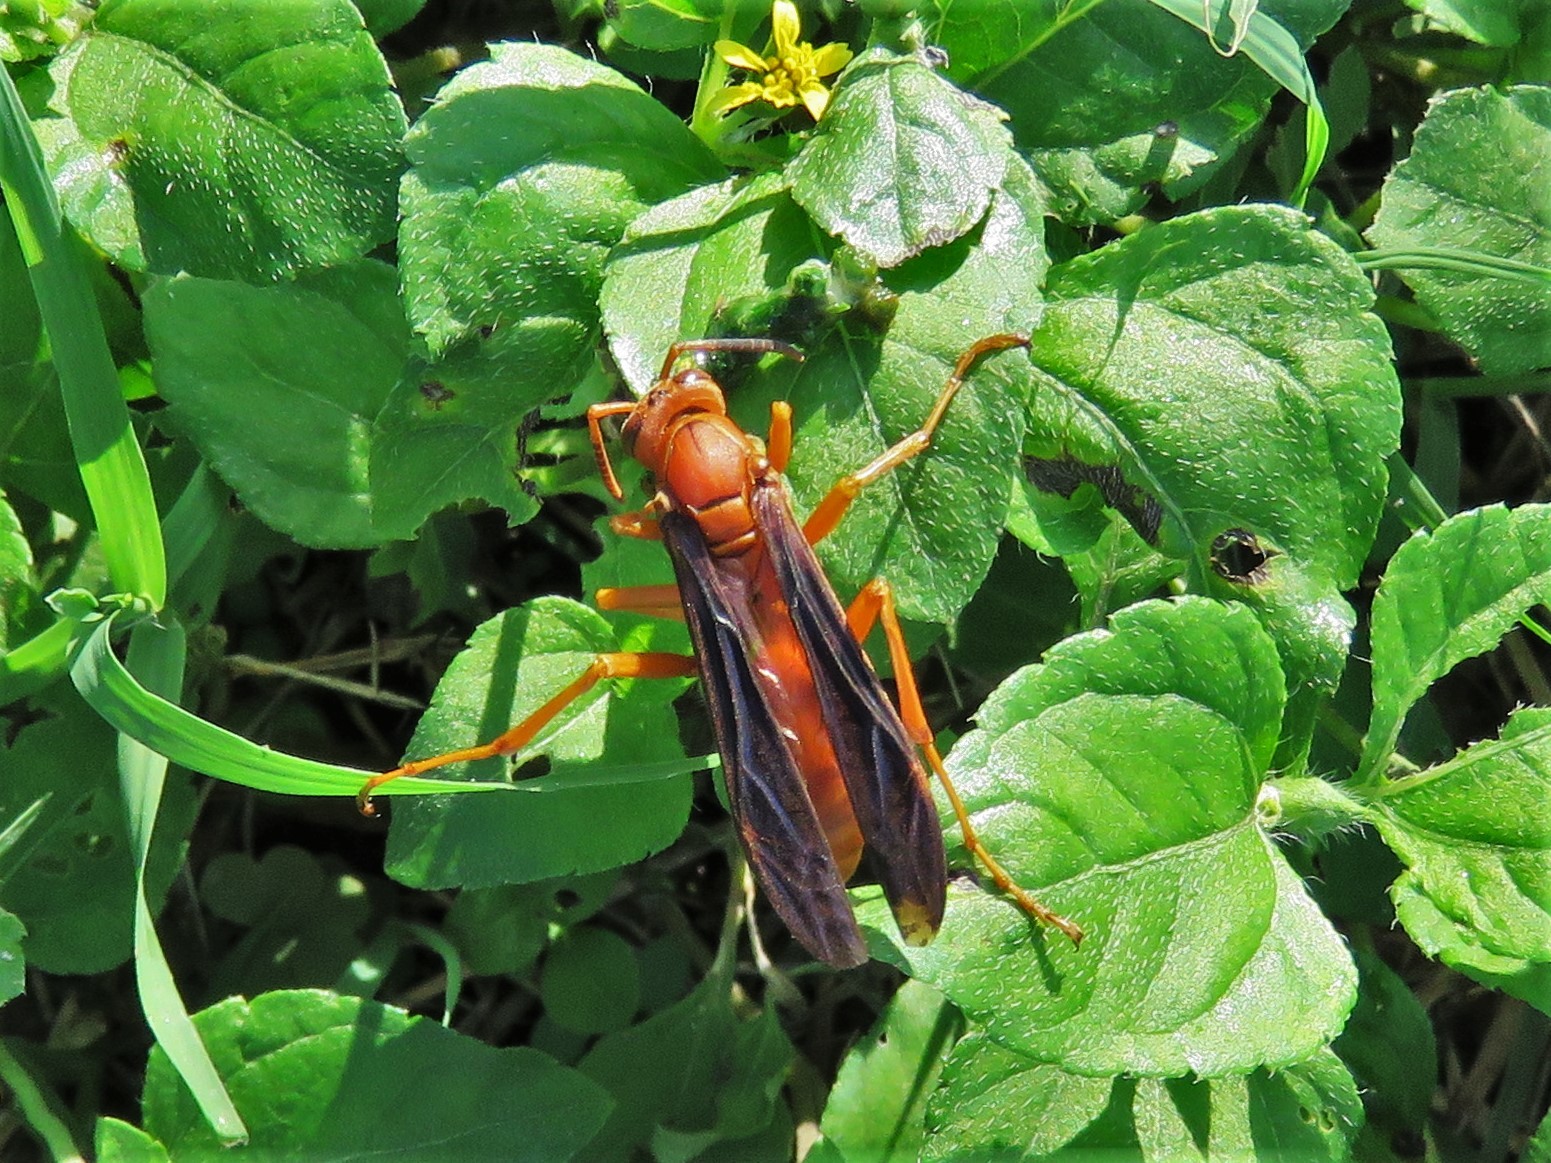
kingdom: Animalia
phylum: Arthropoda
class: Insecta
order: Hymenoptera
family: Eumenidae
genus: Polistes
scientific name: Polistes carolina
